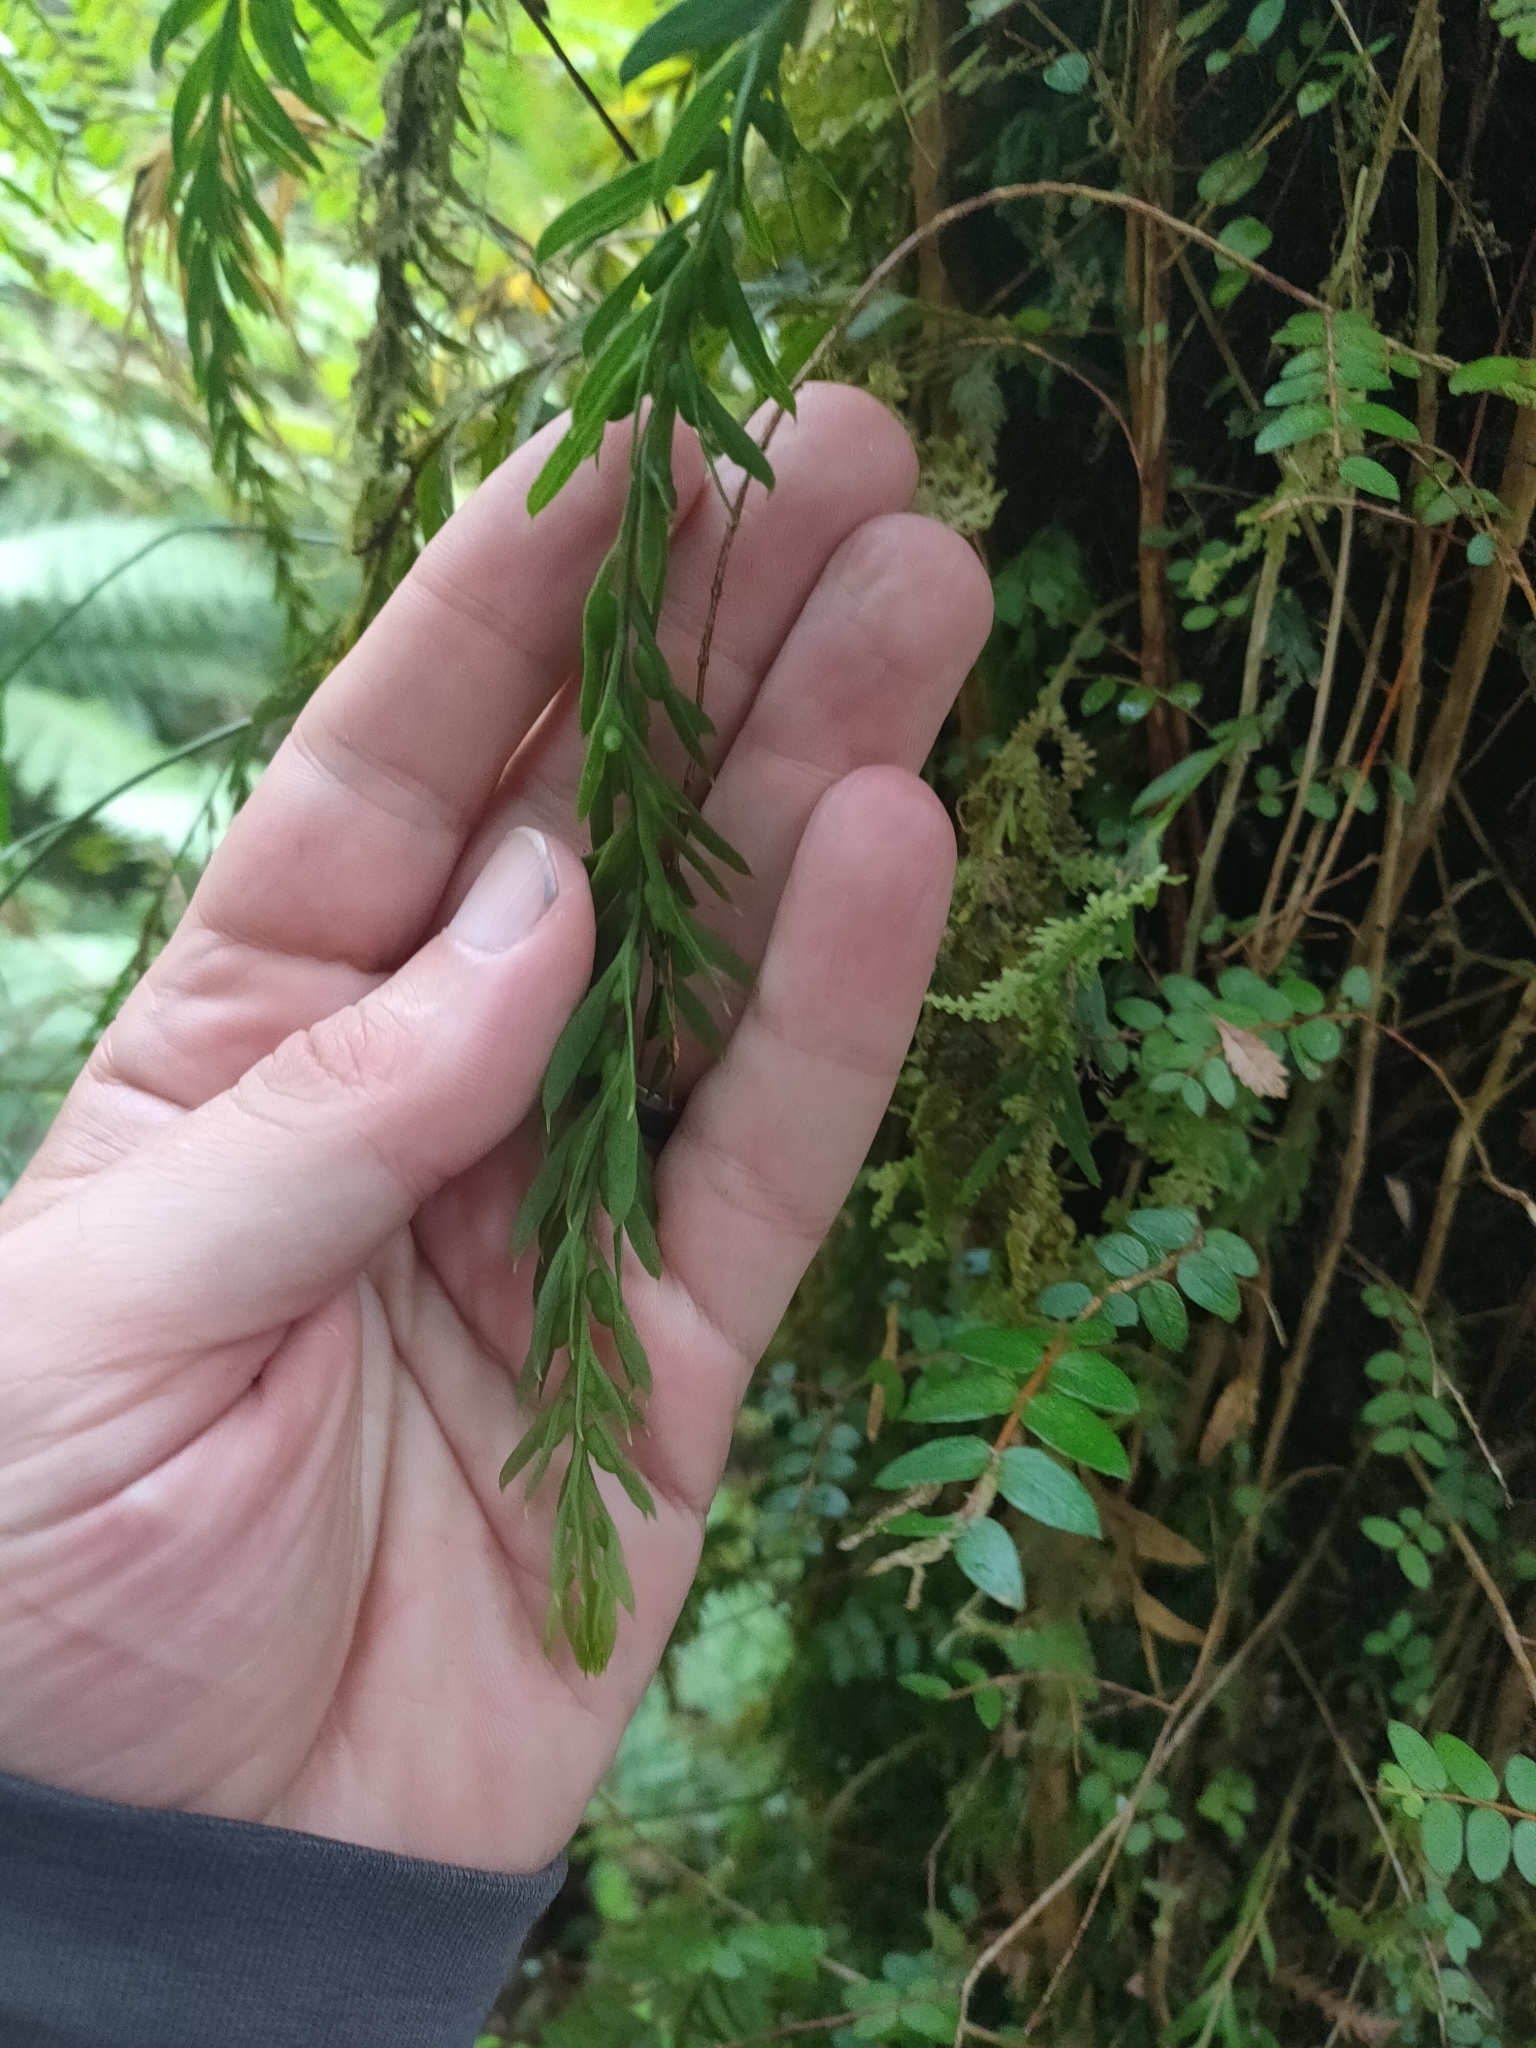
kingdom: Plantae
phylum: Tracheophyta
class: Polypodiopsida
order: Psilotales
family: Psilotaceae
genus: Tmesipteris
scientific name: Tmesipteris elongata
